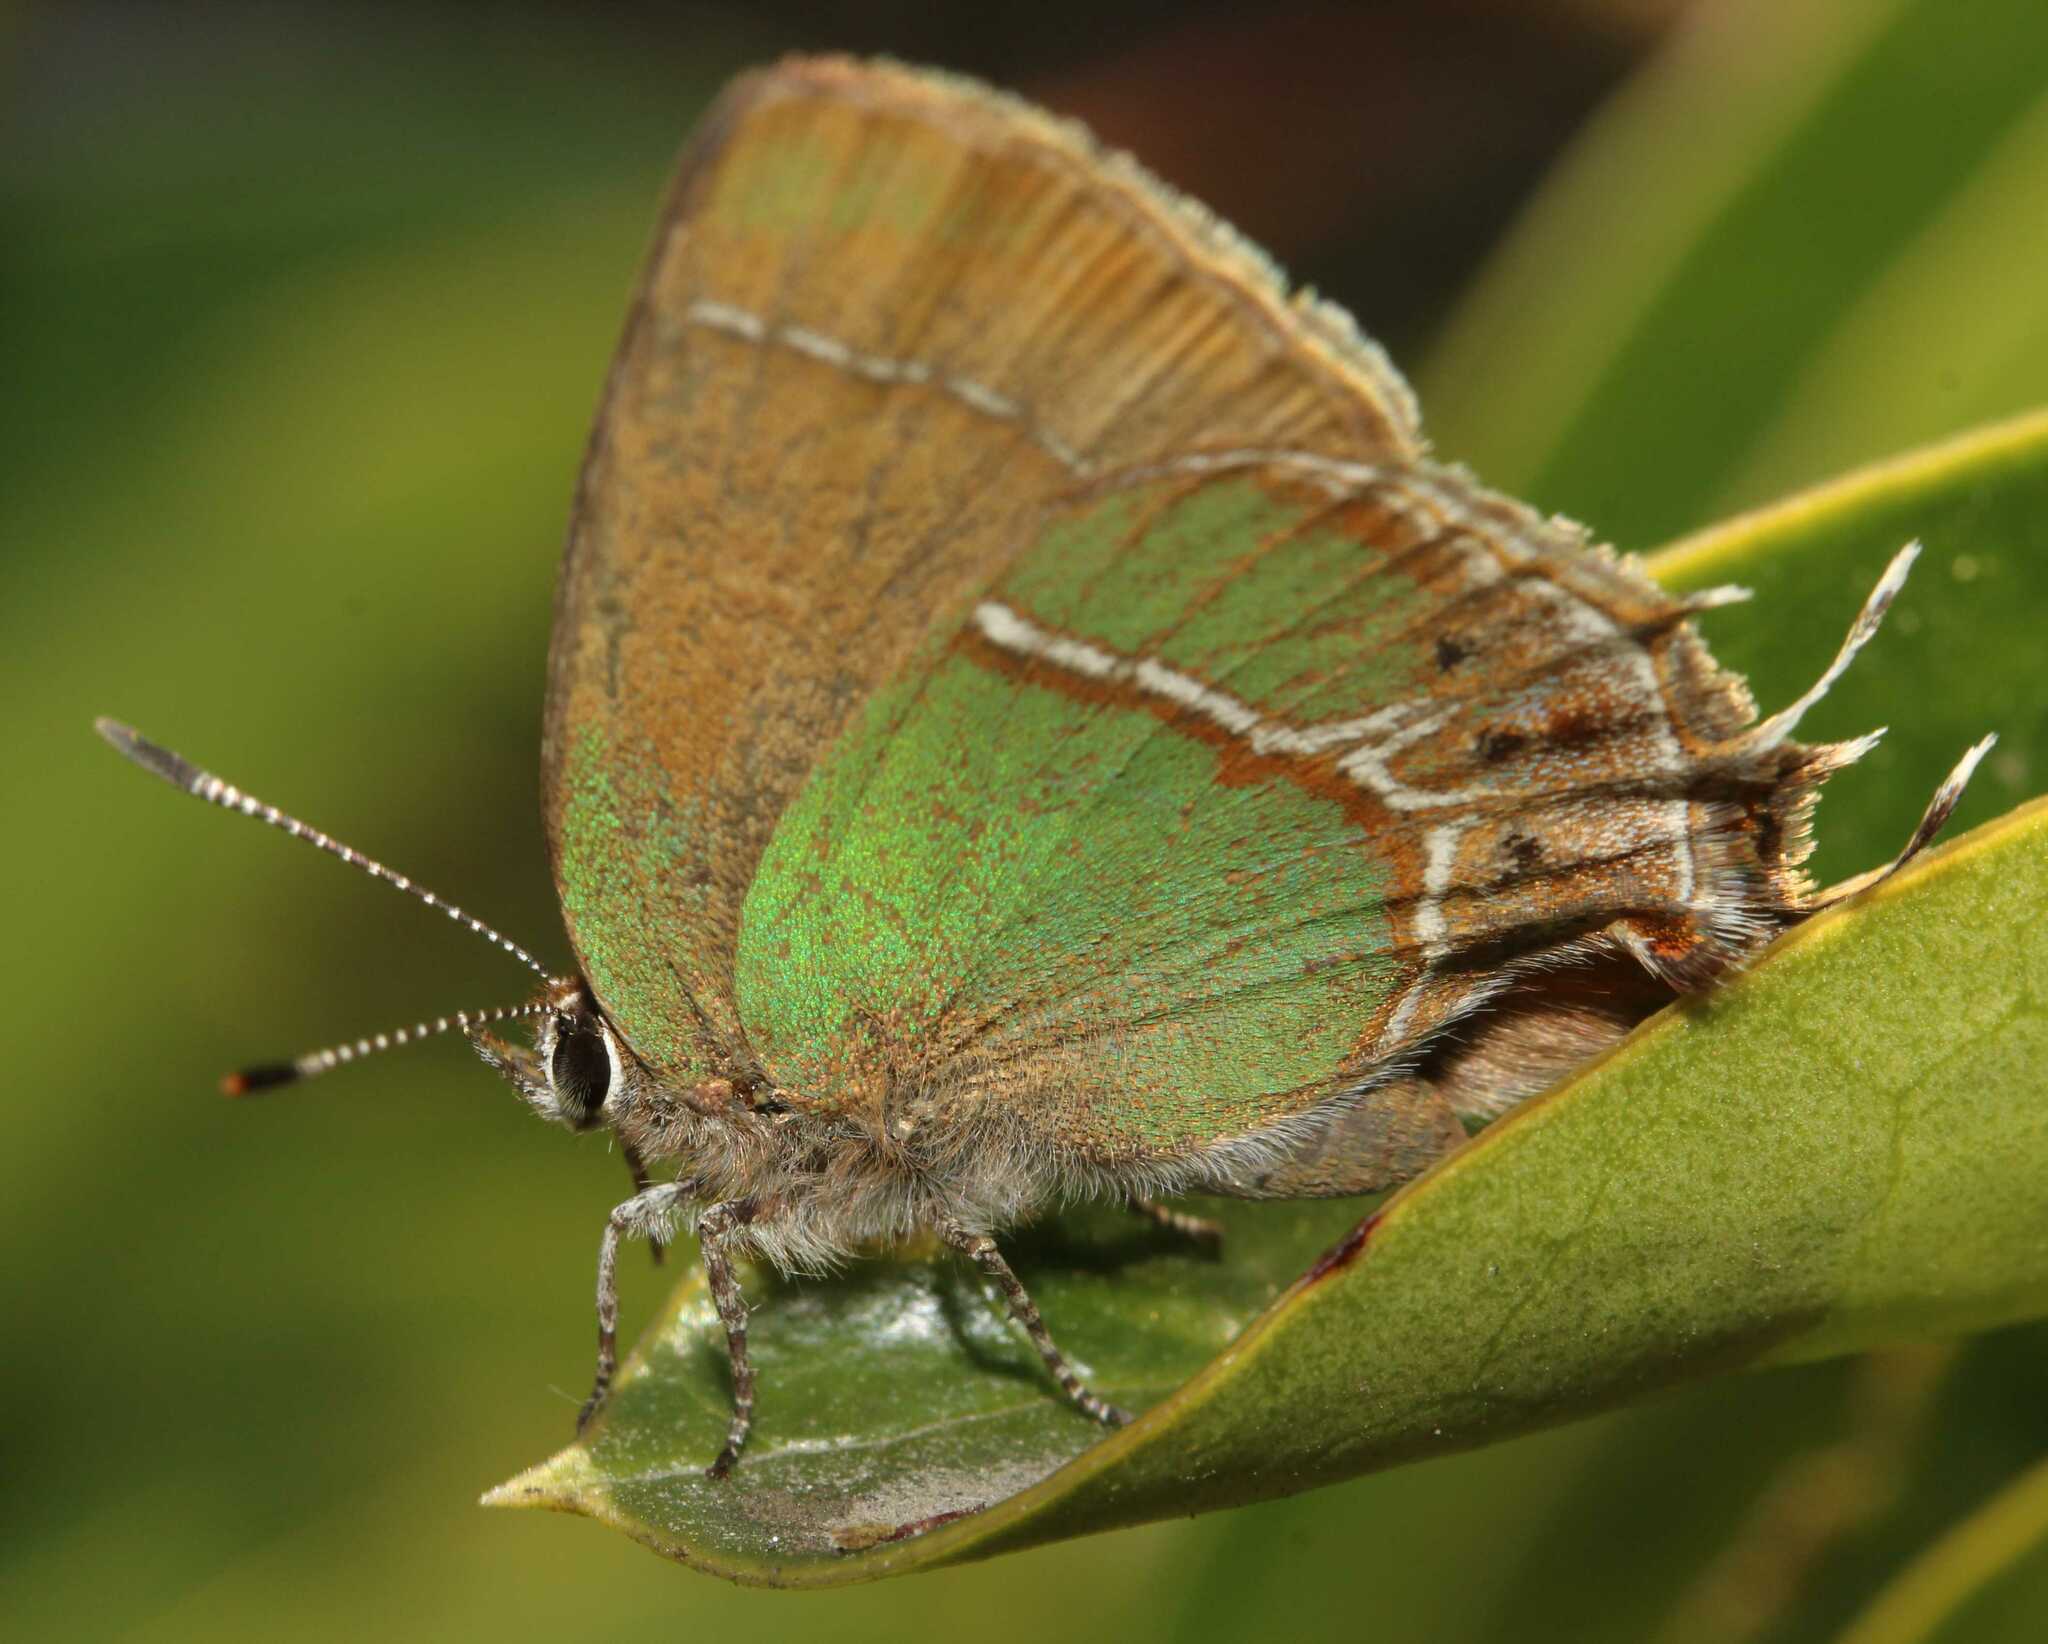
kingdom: Animalia
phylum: Arthropoda
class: Insecta
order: Lepidoptera
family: Lycaenidae
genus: Xamia
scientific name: Xamia xami
